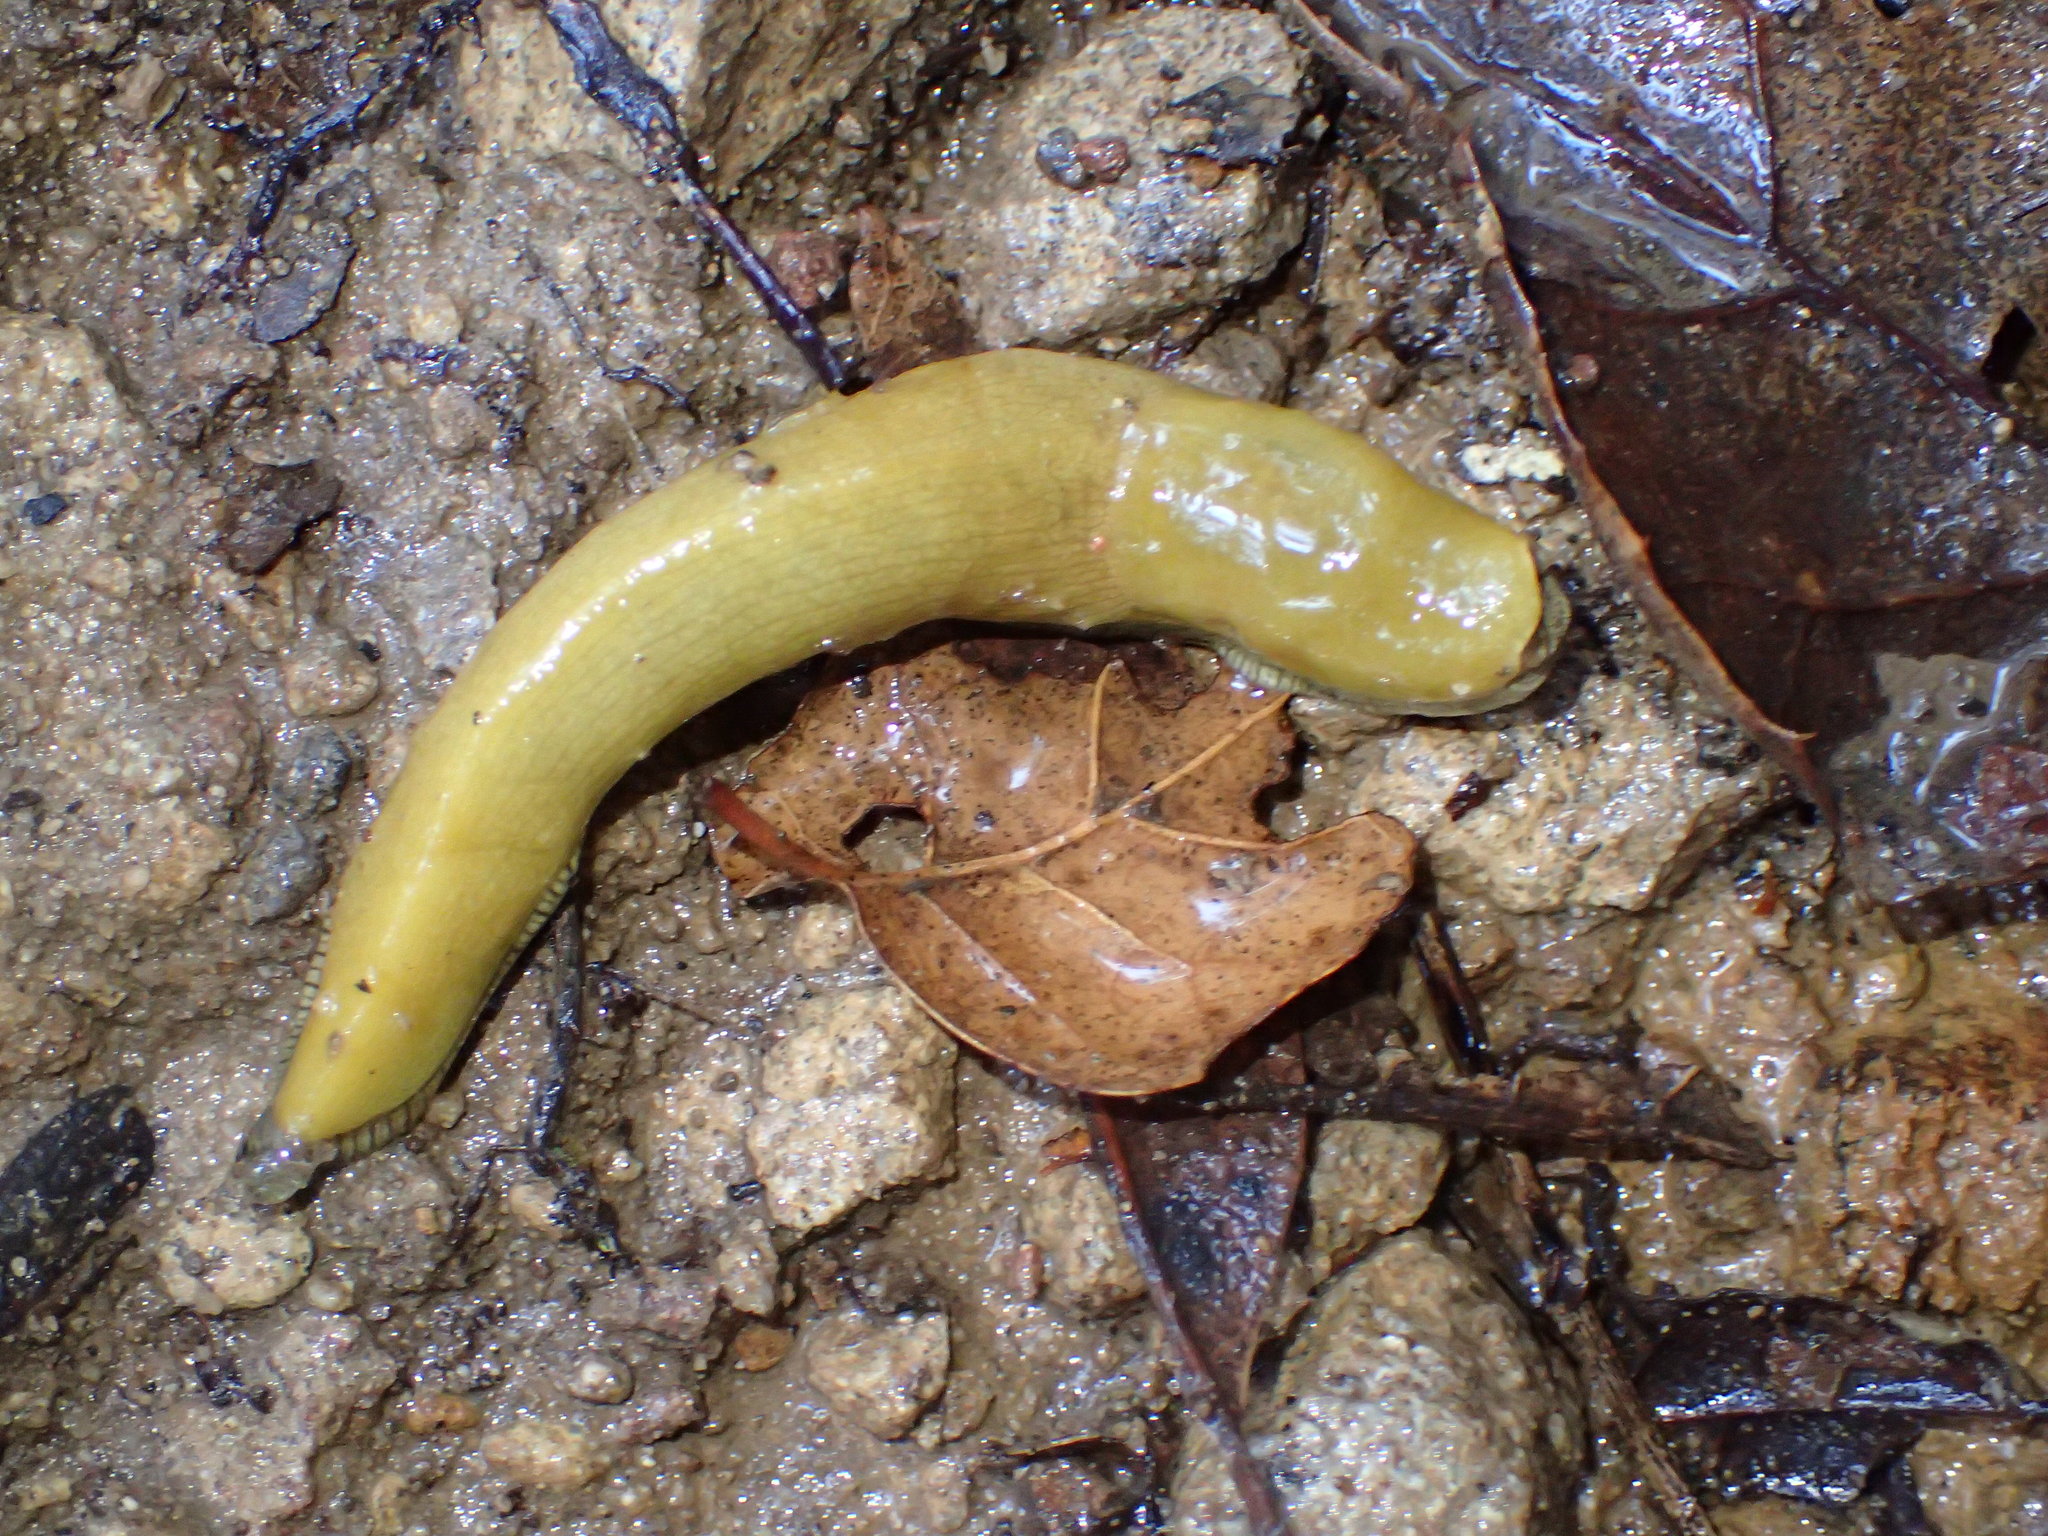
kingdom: Animalia
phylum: Mollusca
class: Gastropoda
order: Stylommatophora
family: Ariolimacidae
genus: Ariolimax
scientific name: Ariolimax stramineus
